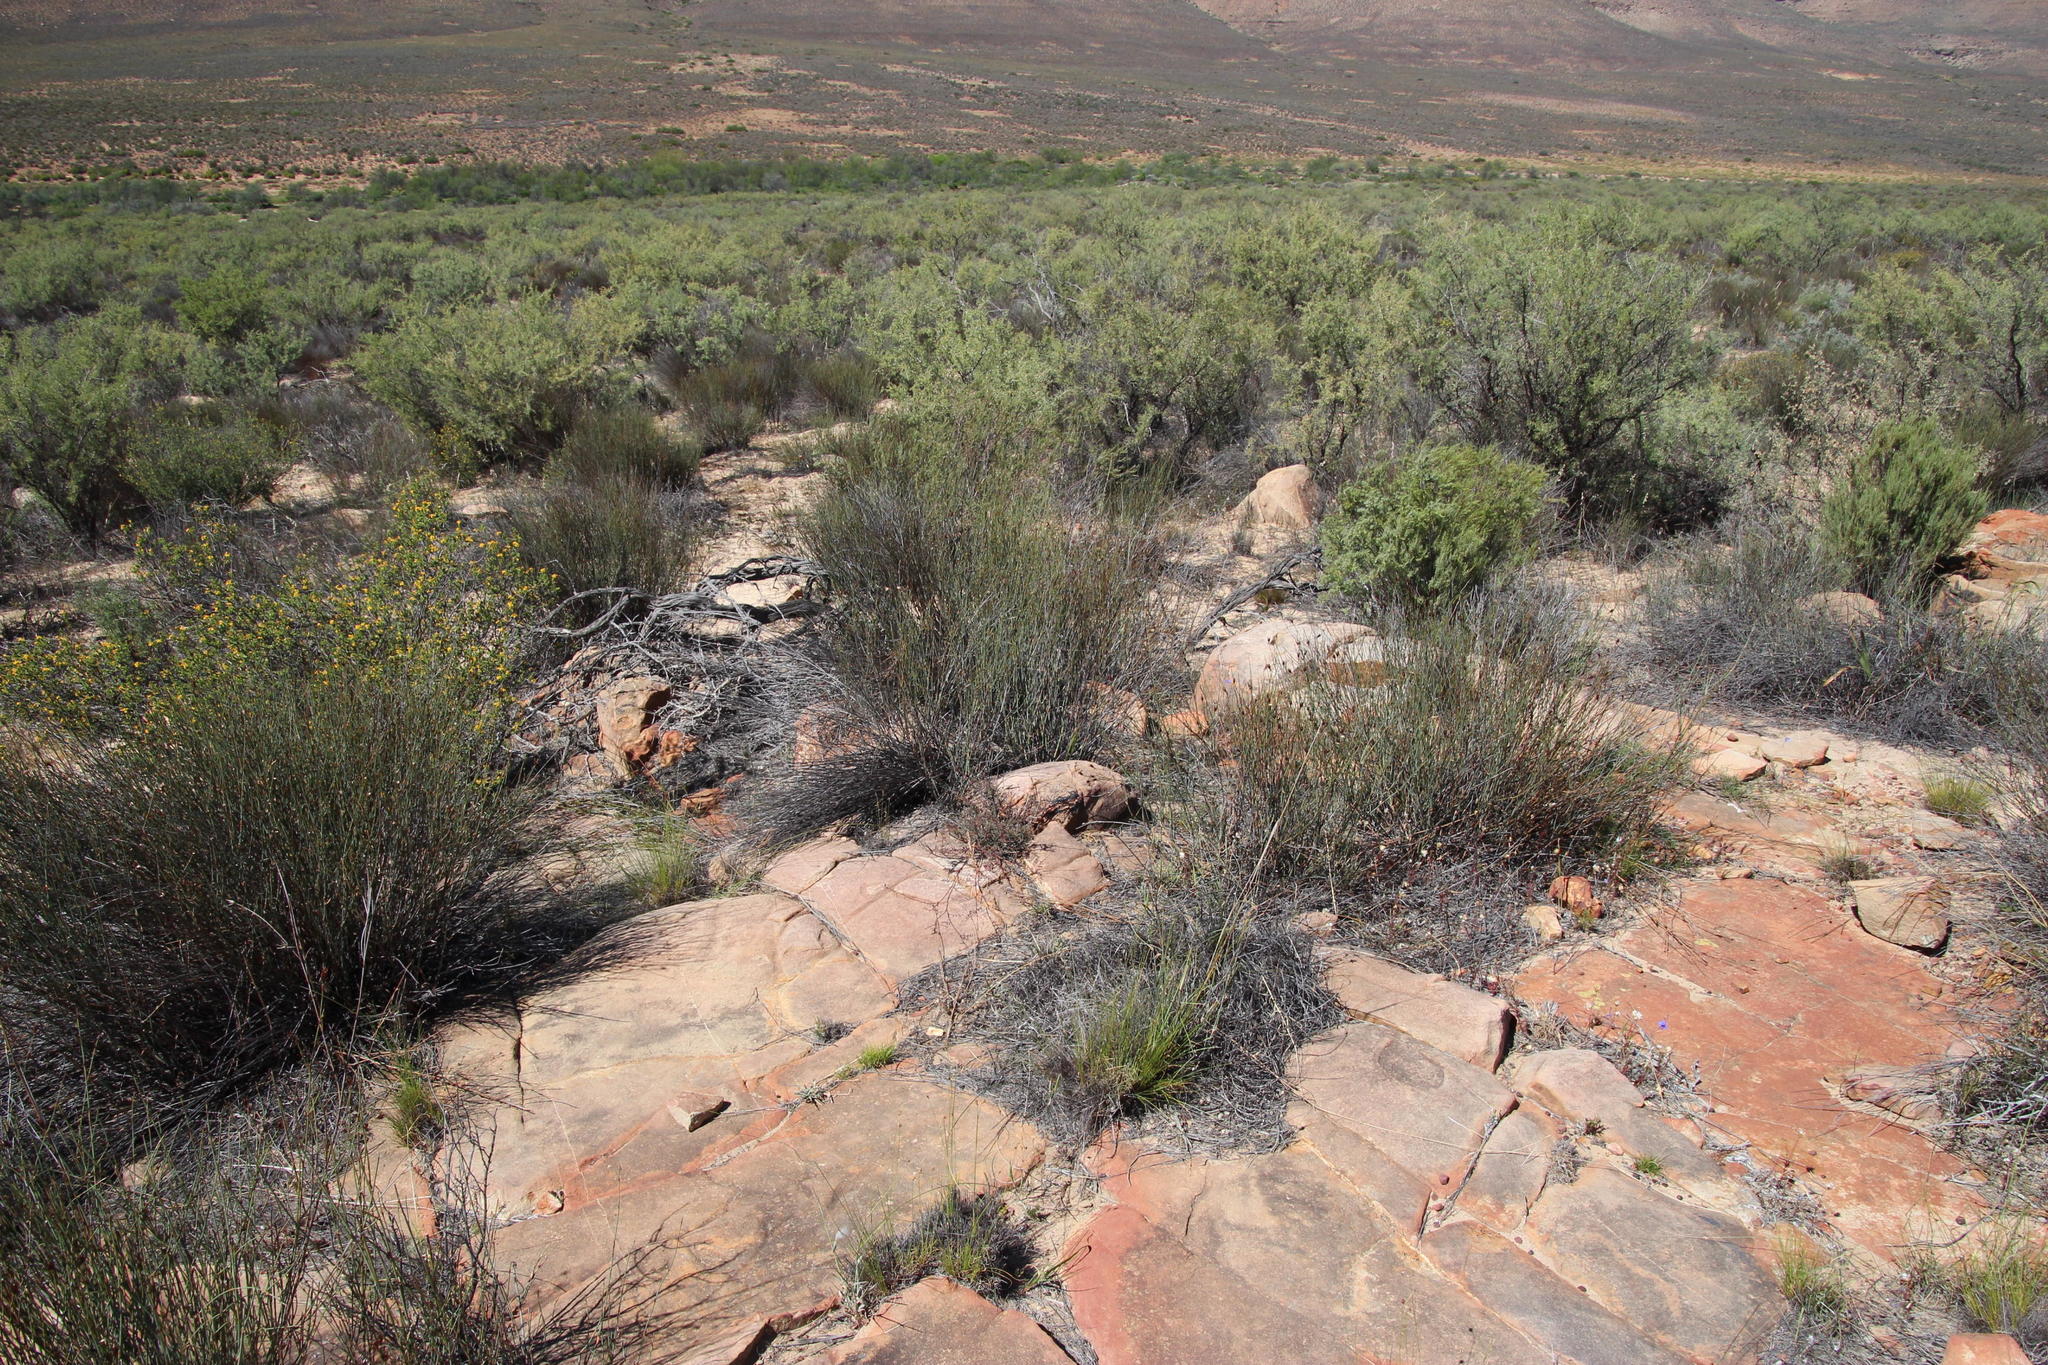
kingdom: Plantae
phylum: Tracheophyta
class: Magnoliopsida
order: Fabales
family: Fabaceae
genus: Indigofera
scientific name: Indigofera humifusa
